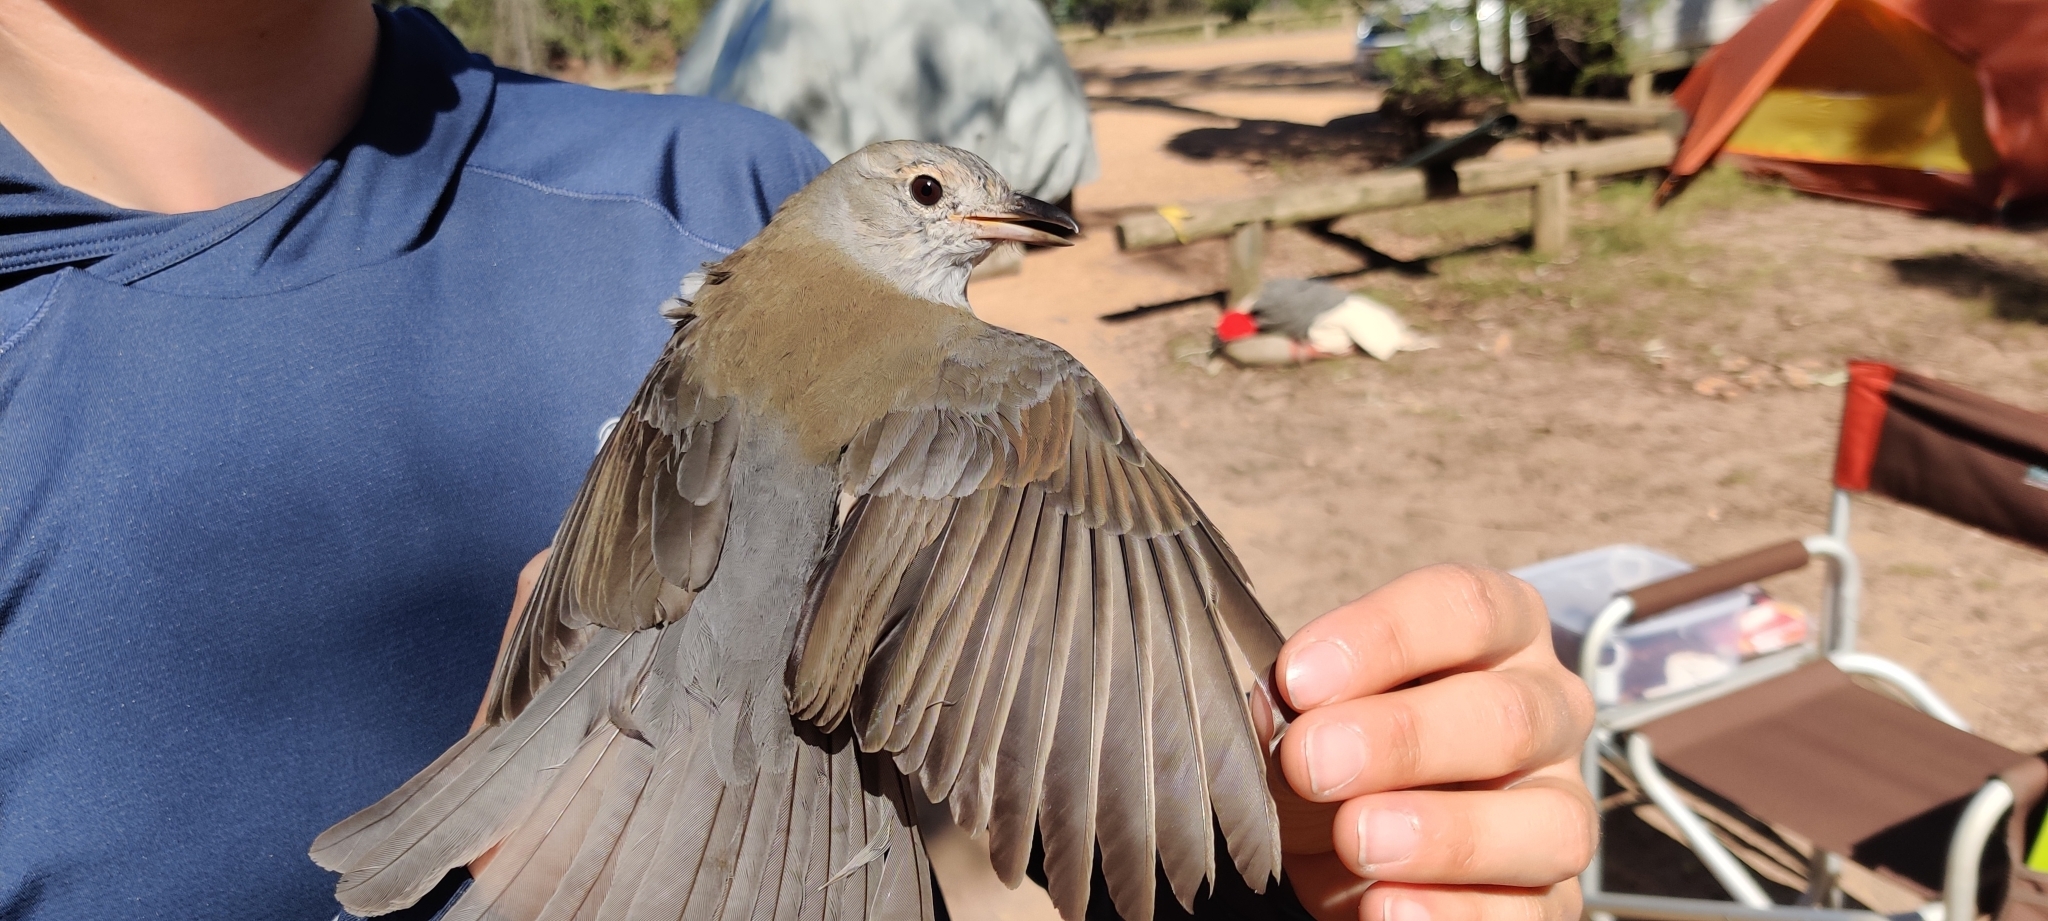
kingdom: Animalia
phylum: Chordata
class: Aves
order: Passeriformes
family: Pachycephalidae
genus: Colluricincla
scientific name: Colluricincla harmonica
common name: Grey shrikethrush
